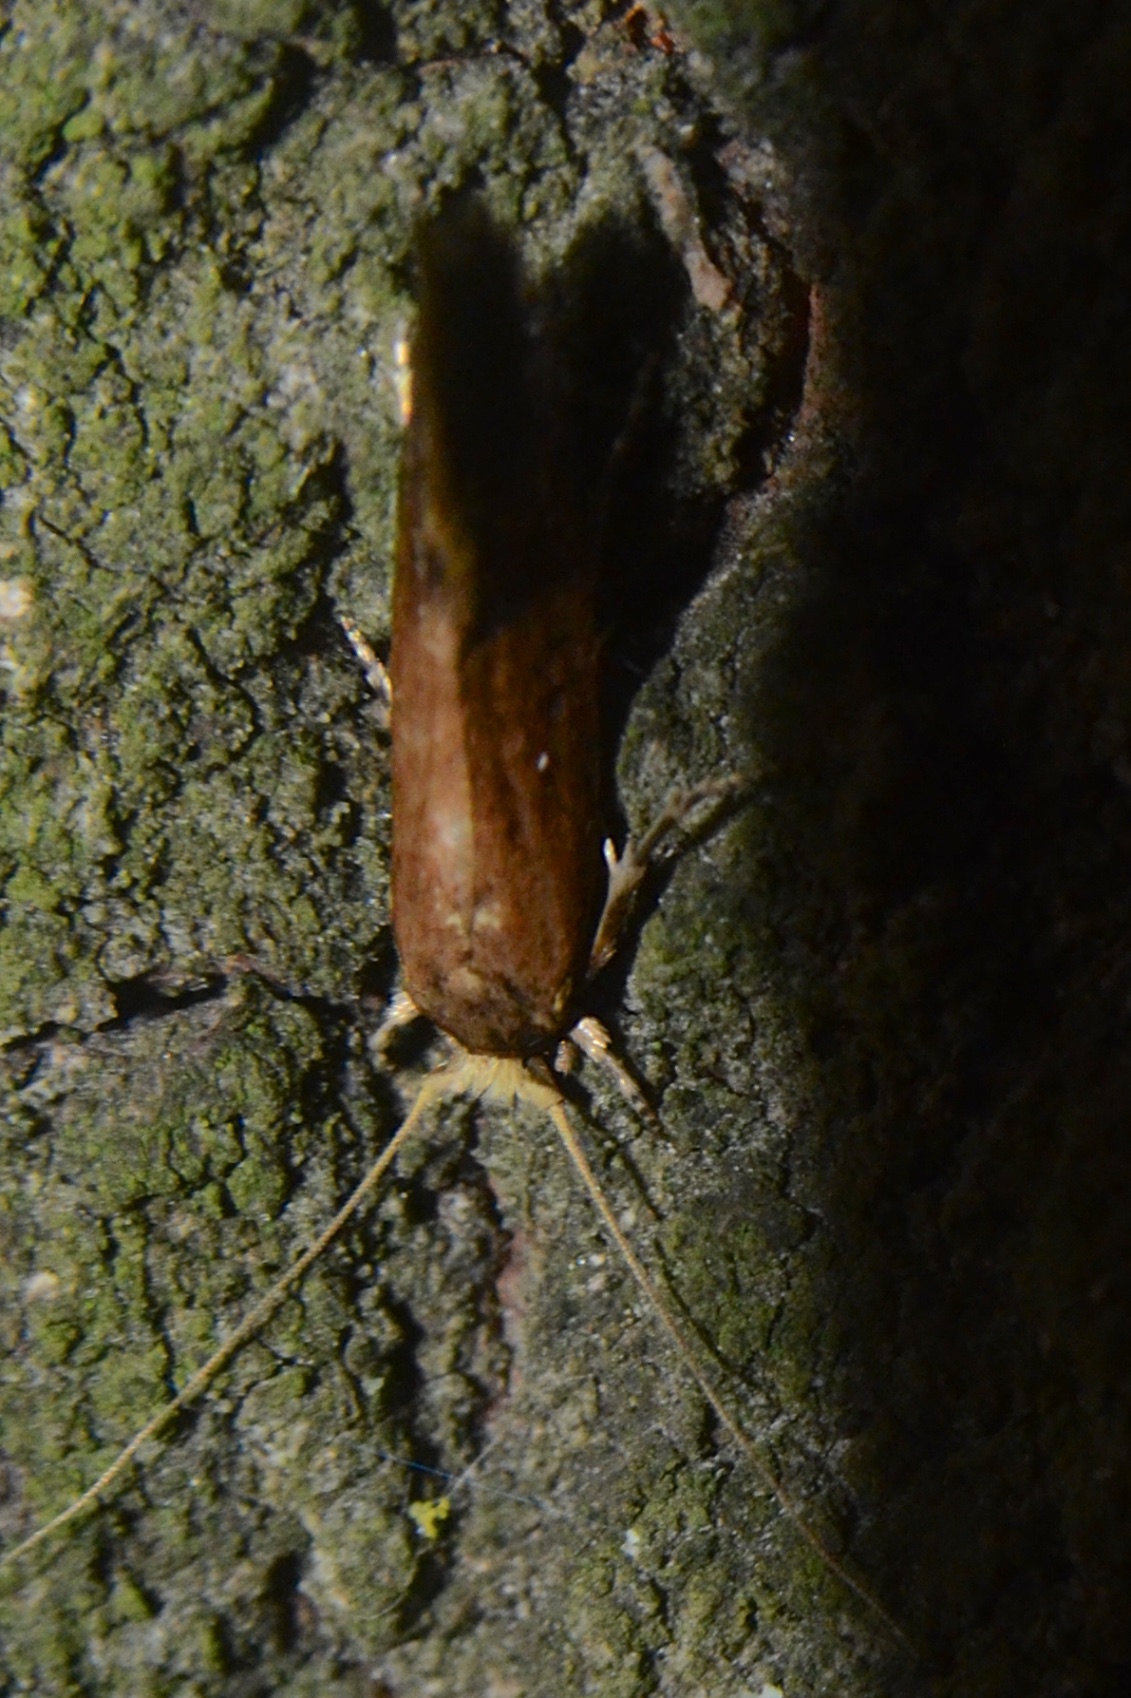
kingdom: Animalia
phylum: Arthropoda
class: Insecta
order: Lepidoptera
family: Tineidae
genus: Opogona
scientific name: Opogona omoscopa
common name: Moth
